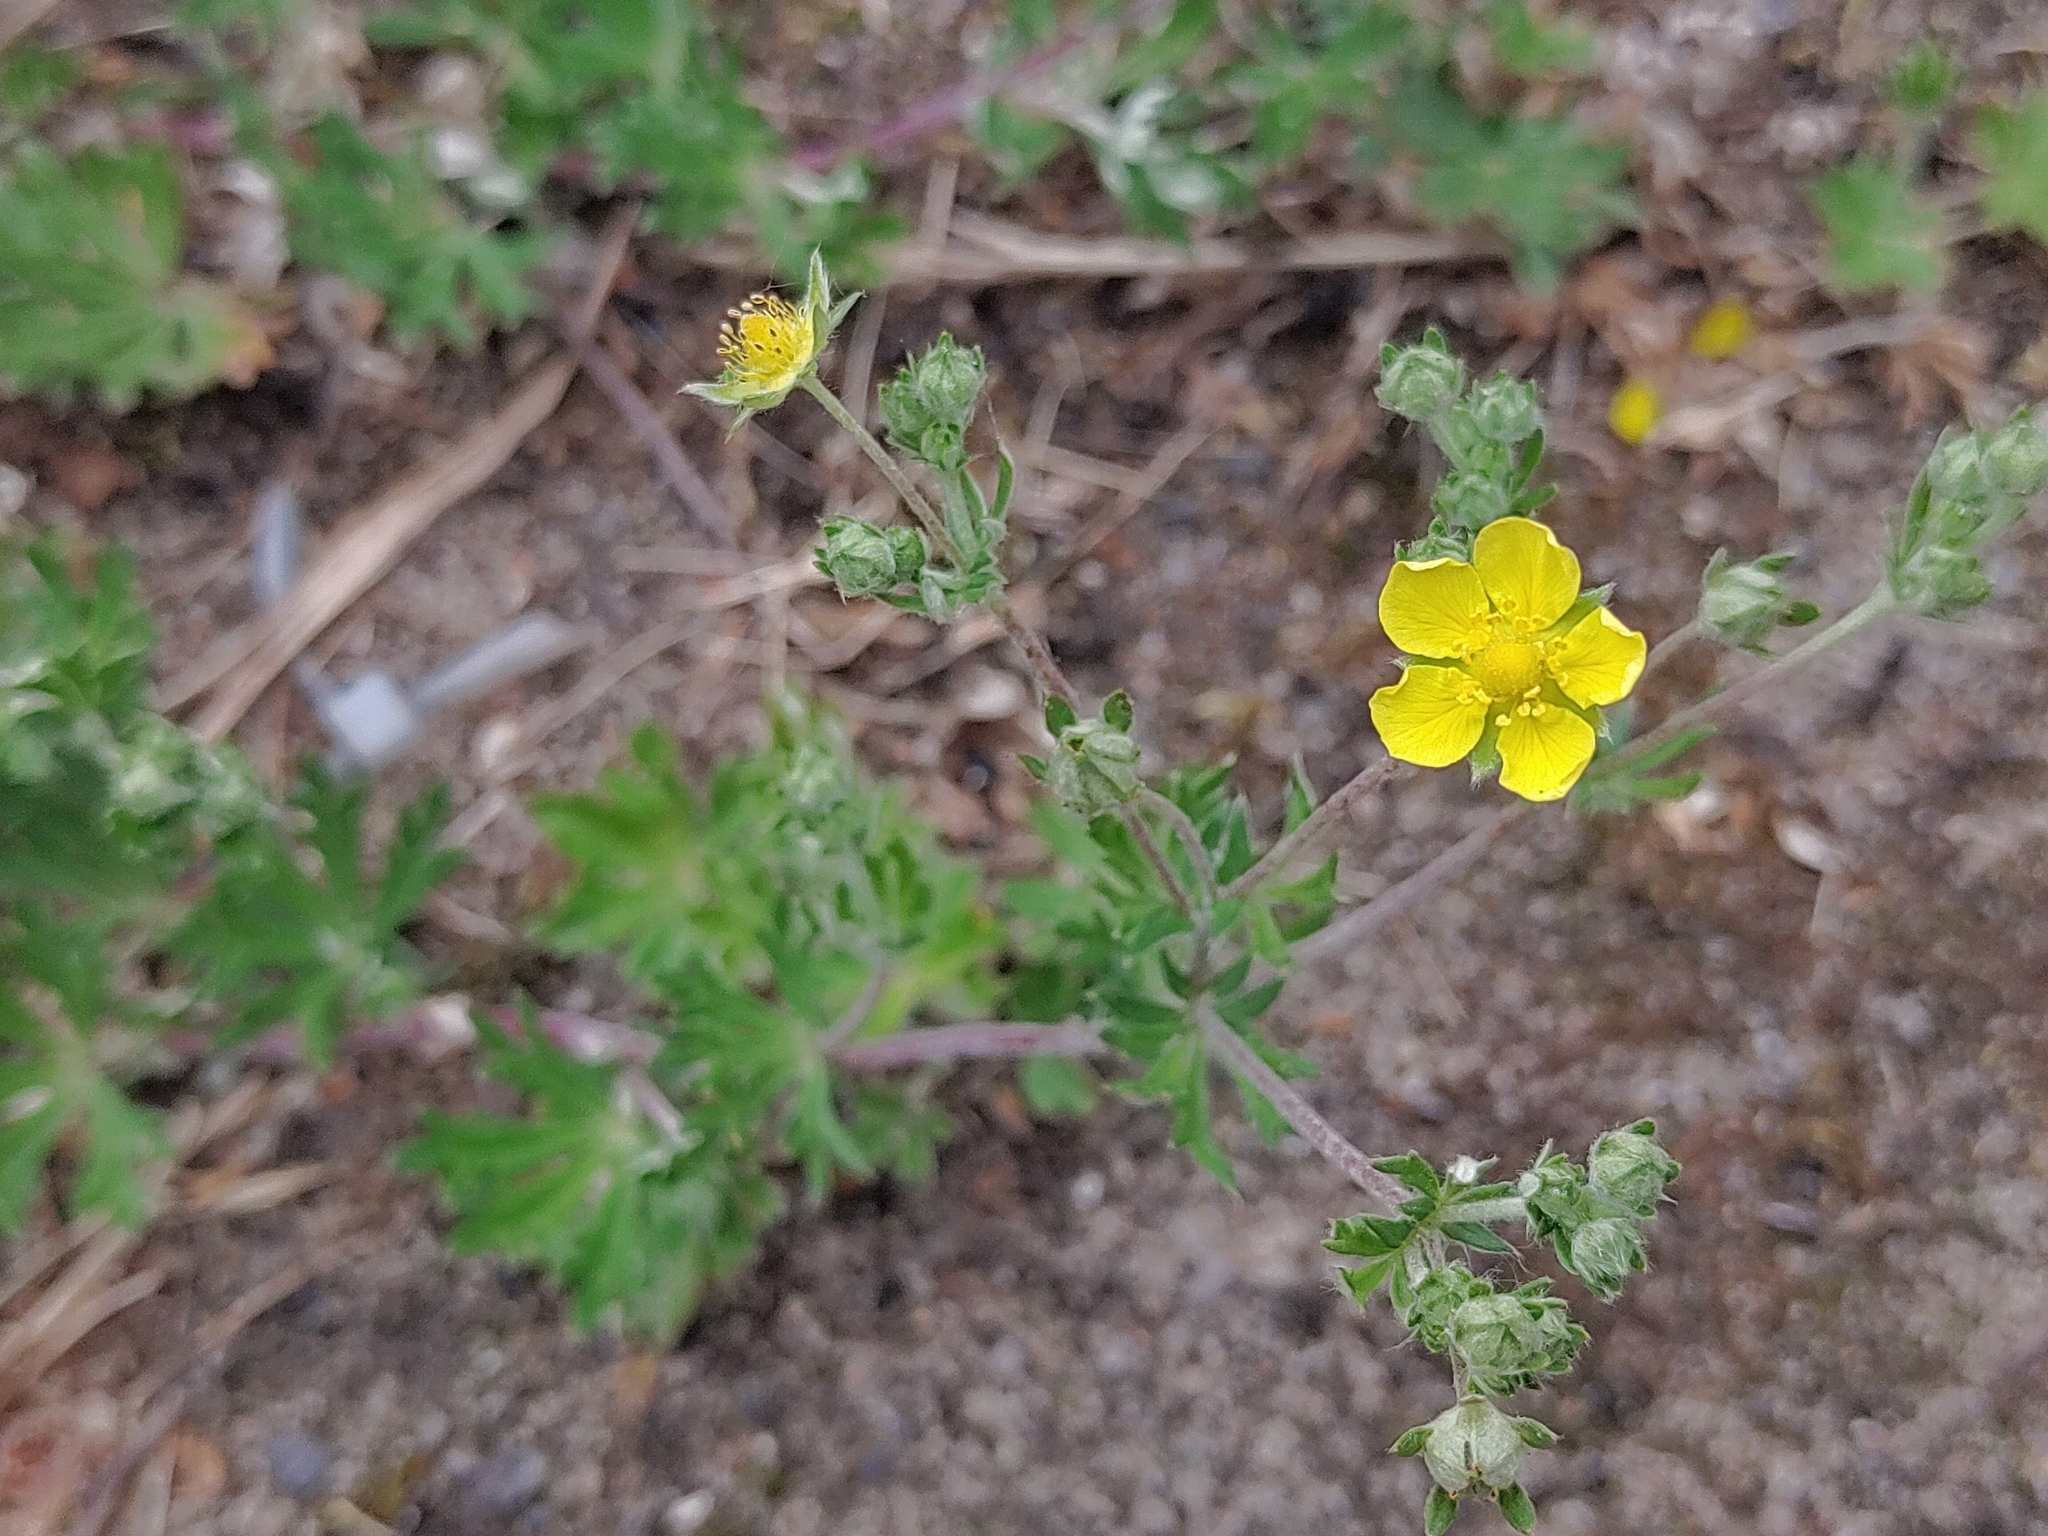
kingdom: Plantae
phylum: Tracheophyta
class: Magnoliopsida
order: Rosales
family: Rosaceae
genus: Potentilla
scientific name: Potentilla argentea
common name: Hoary cinquefoil
